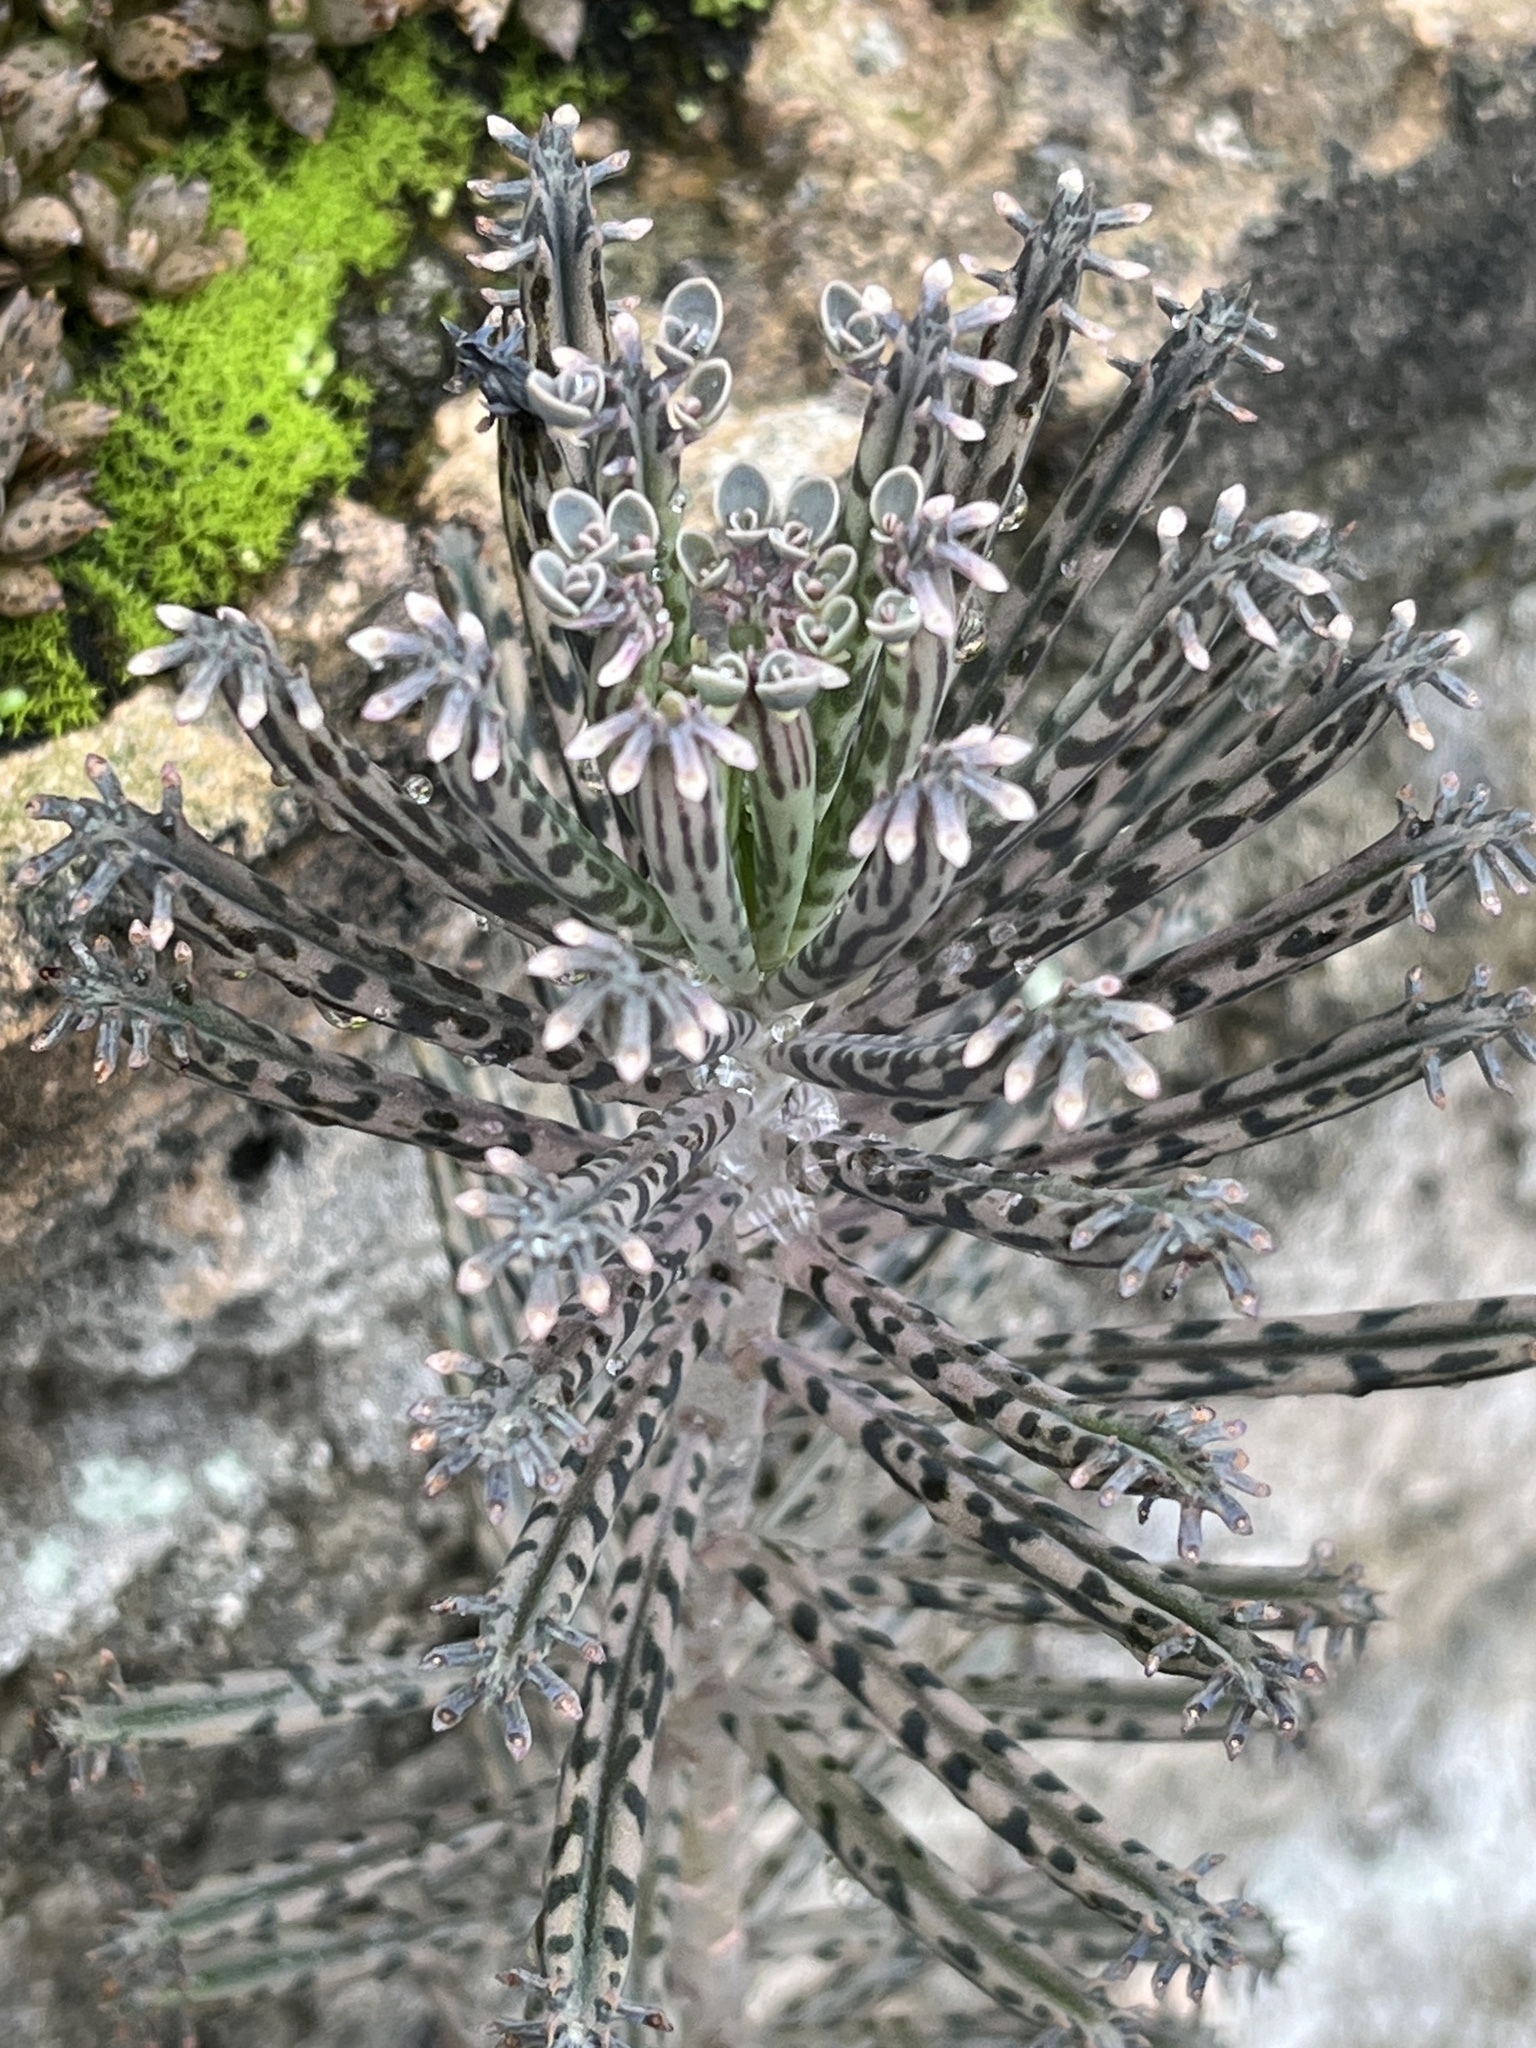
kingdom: Plantae
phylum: Tracheophyta
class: Magnoliopsida
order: Saxifragales
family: Crassulaceae
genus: Kalanchoe
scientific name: Kalanchoe delagoensis
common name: Chandelier plant
